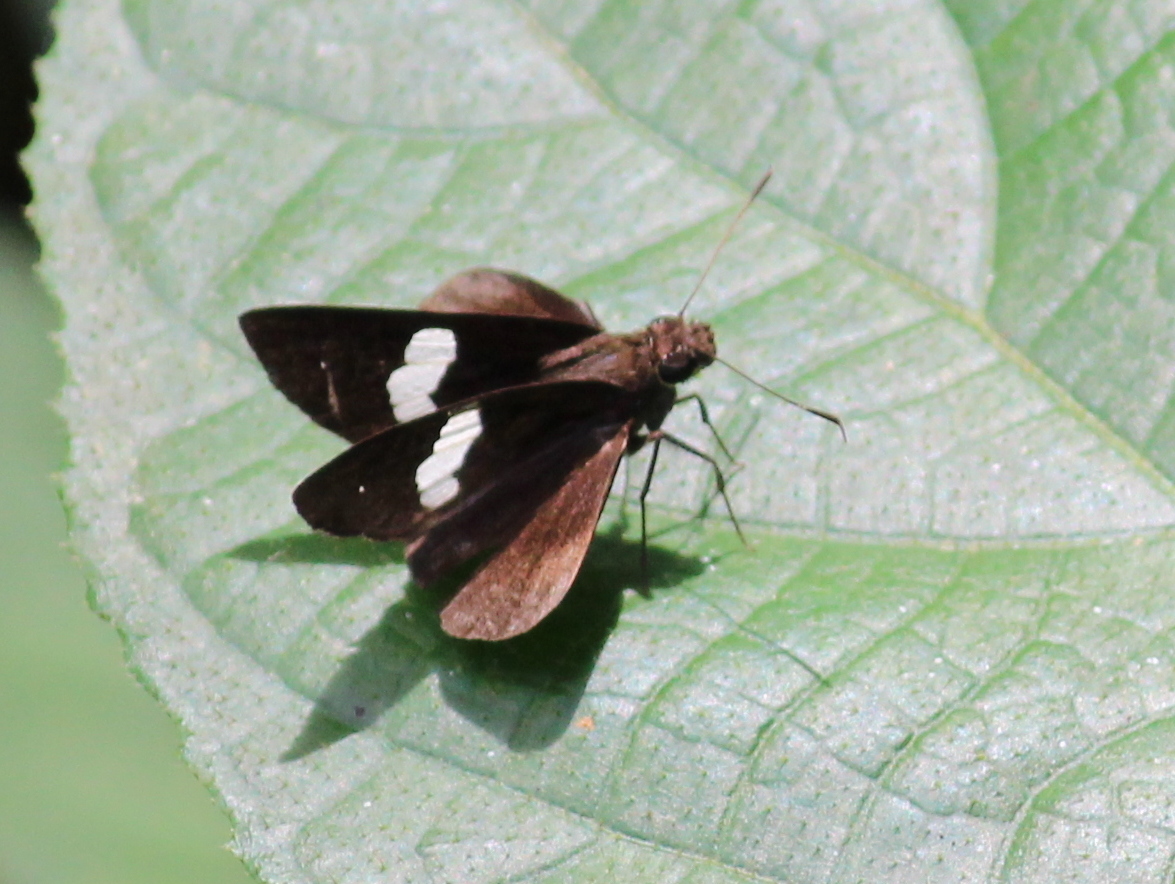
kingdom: Animalia
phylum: Arthropoda
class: Insecta
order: Lepidoptera
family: Hesperiidae
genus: Notocrypta
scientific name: Notocrypta paralysos
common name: Common banded demon
